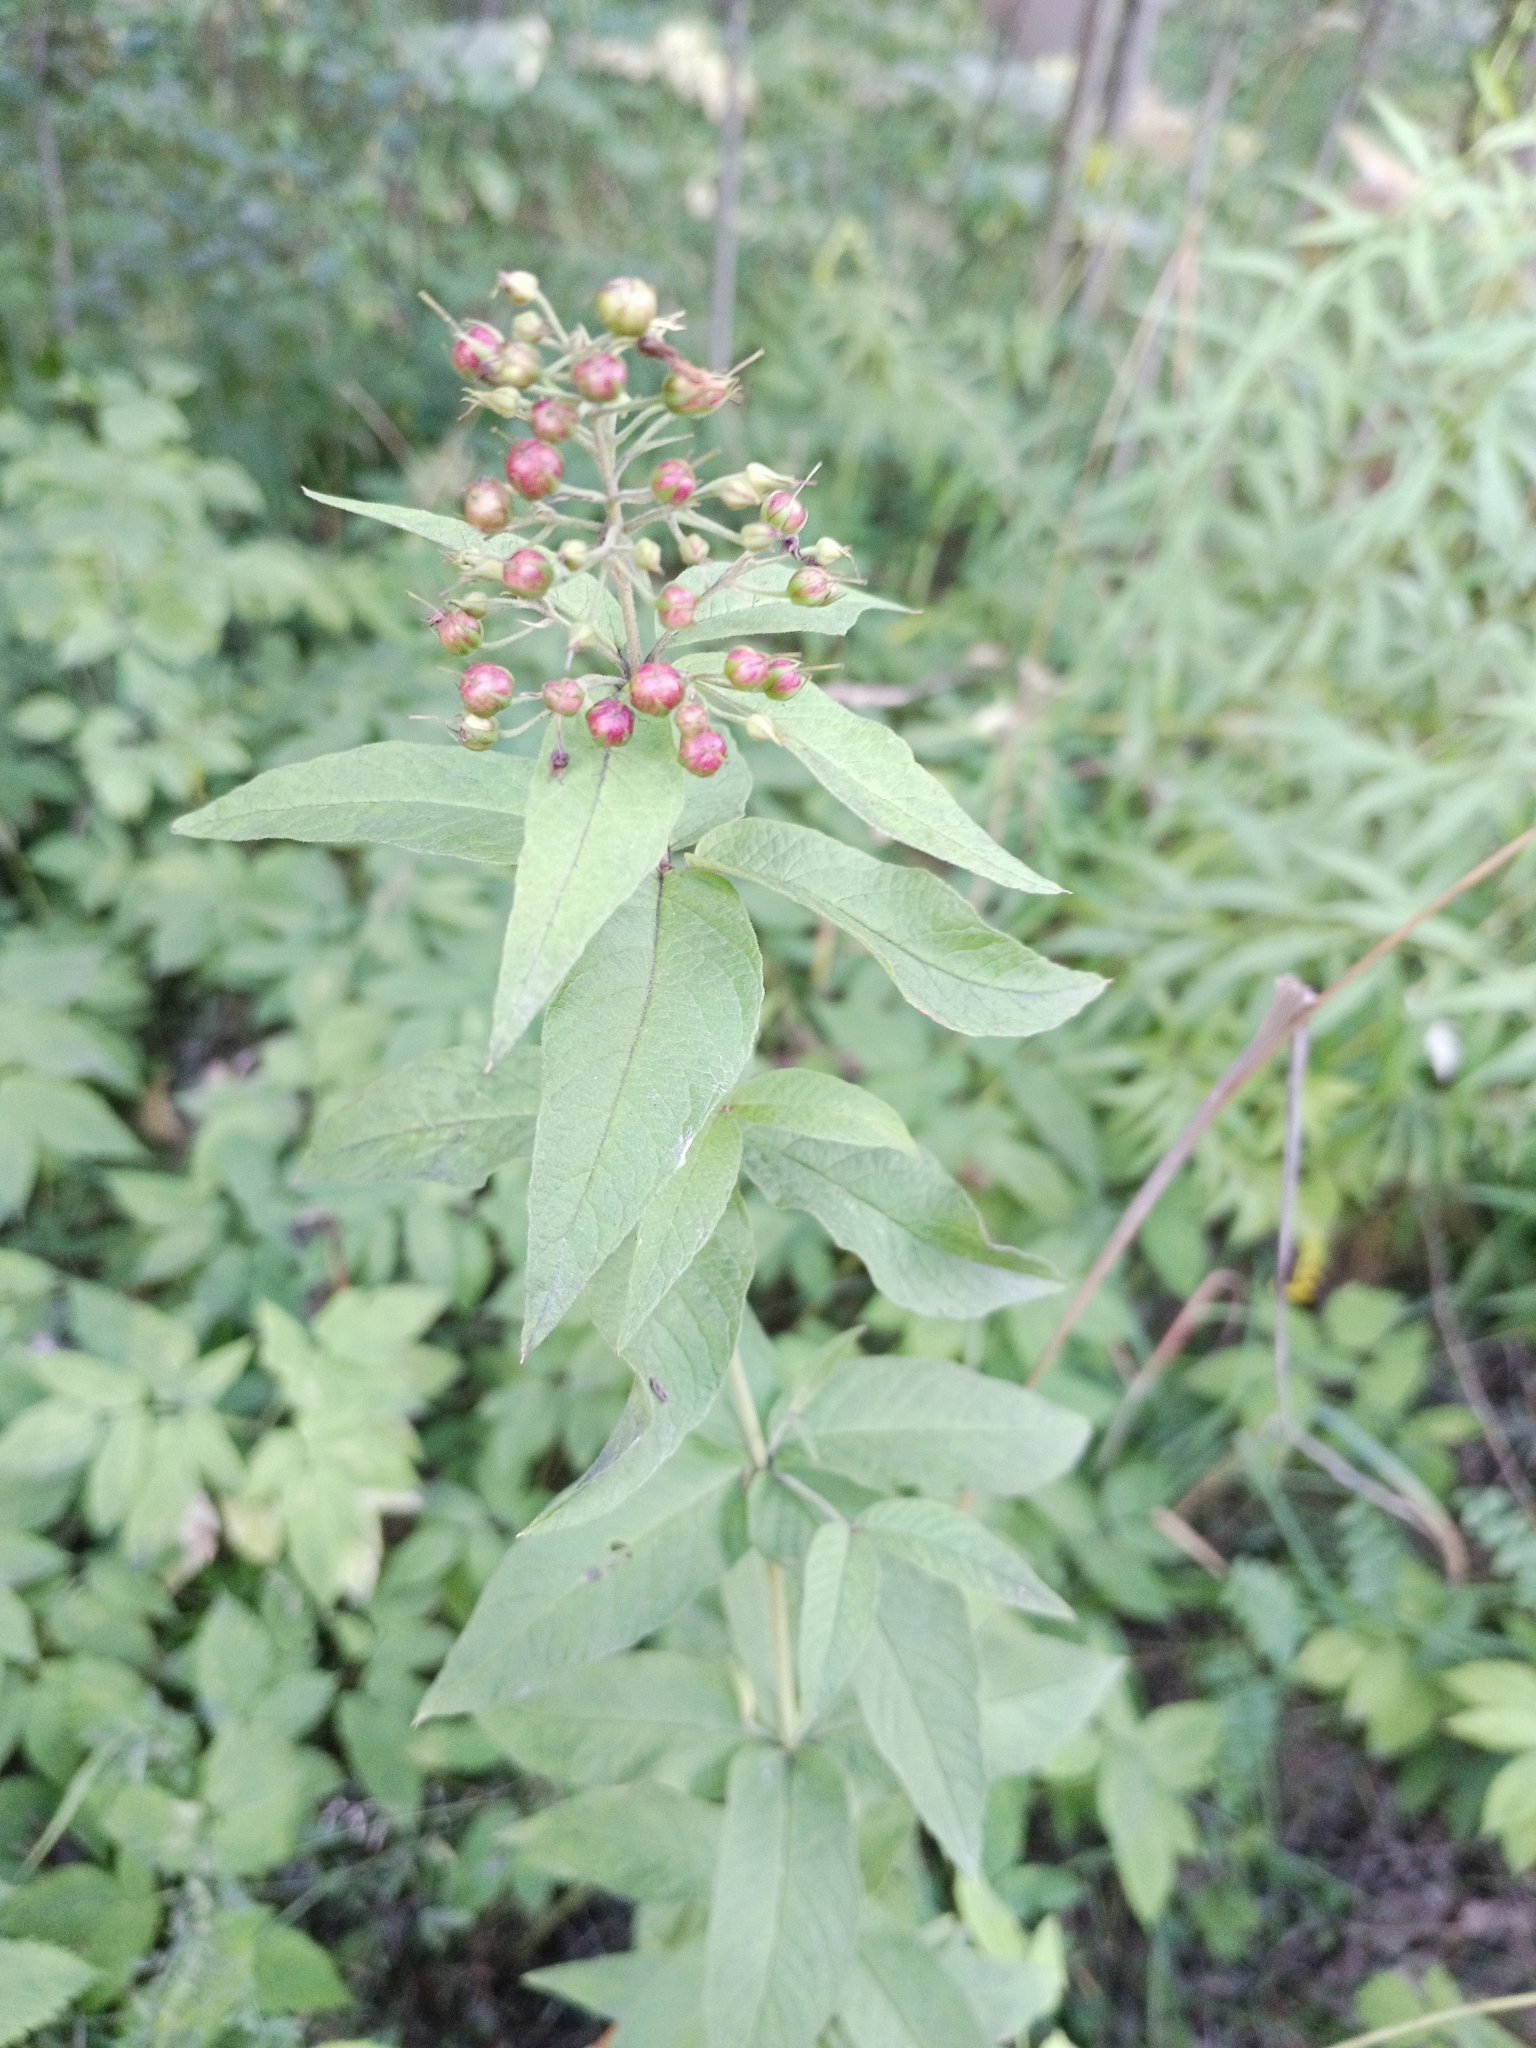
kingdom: Plantae
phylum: Tracheophyta
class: Magnoliopsida
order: Ericales
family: Primulaceae
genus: Lysimachia
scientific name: Lysimachia vulgaris
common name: Yellow loosestrife
